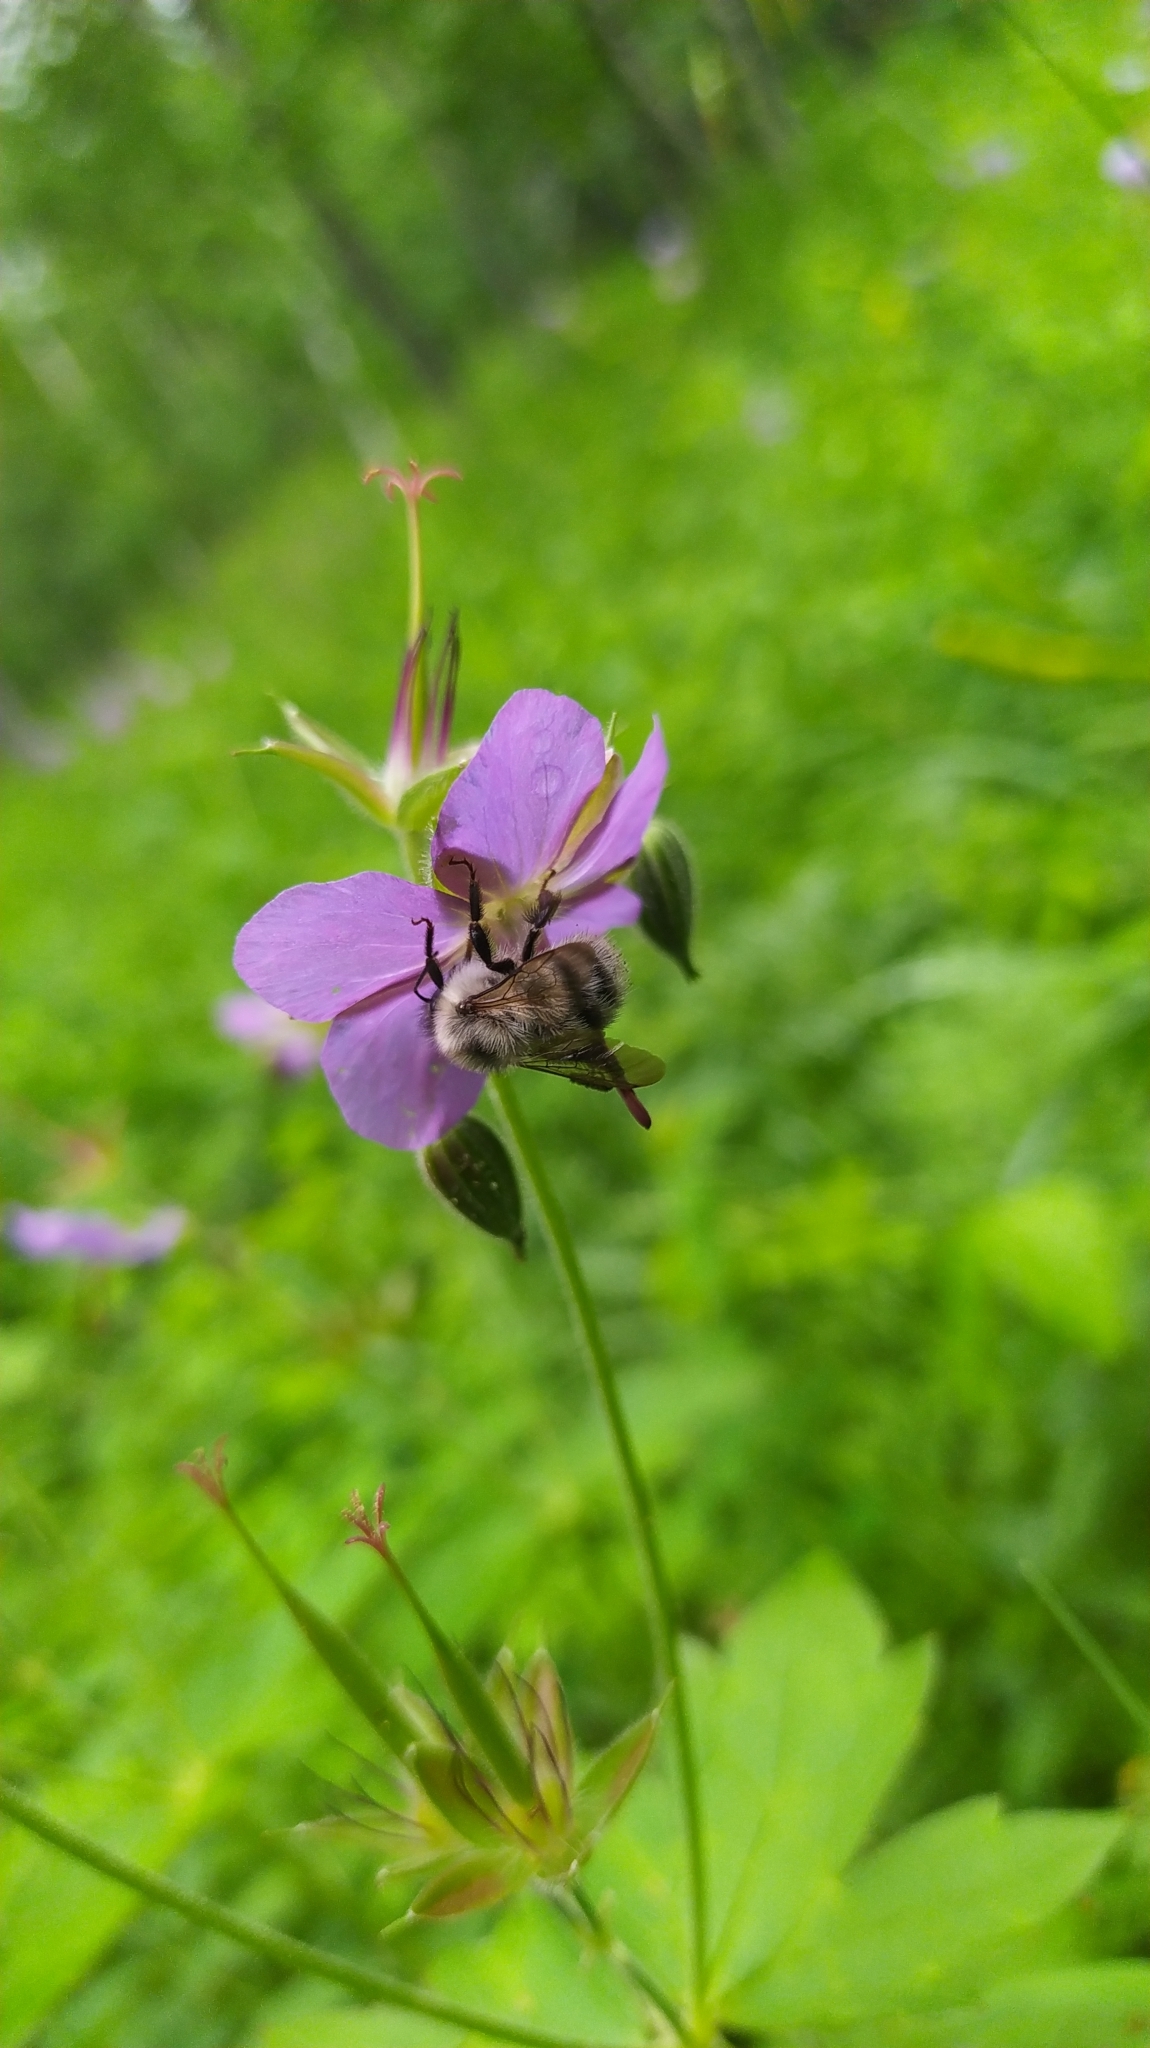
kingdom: Animalia
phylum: Arthropoda
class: Insecta
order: Hymenoptera
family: Apidae
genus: Bombus
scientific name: Bombus deuteronymus
